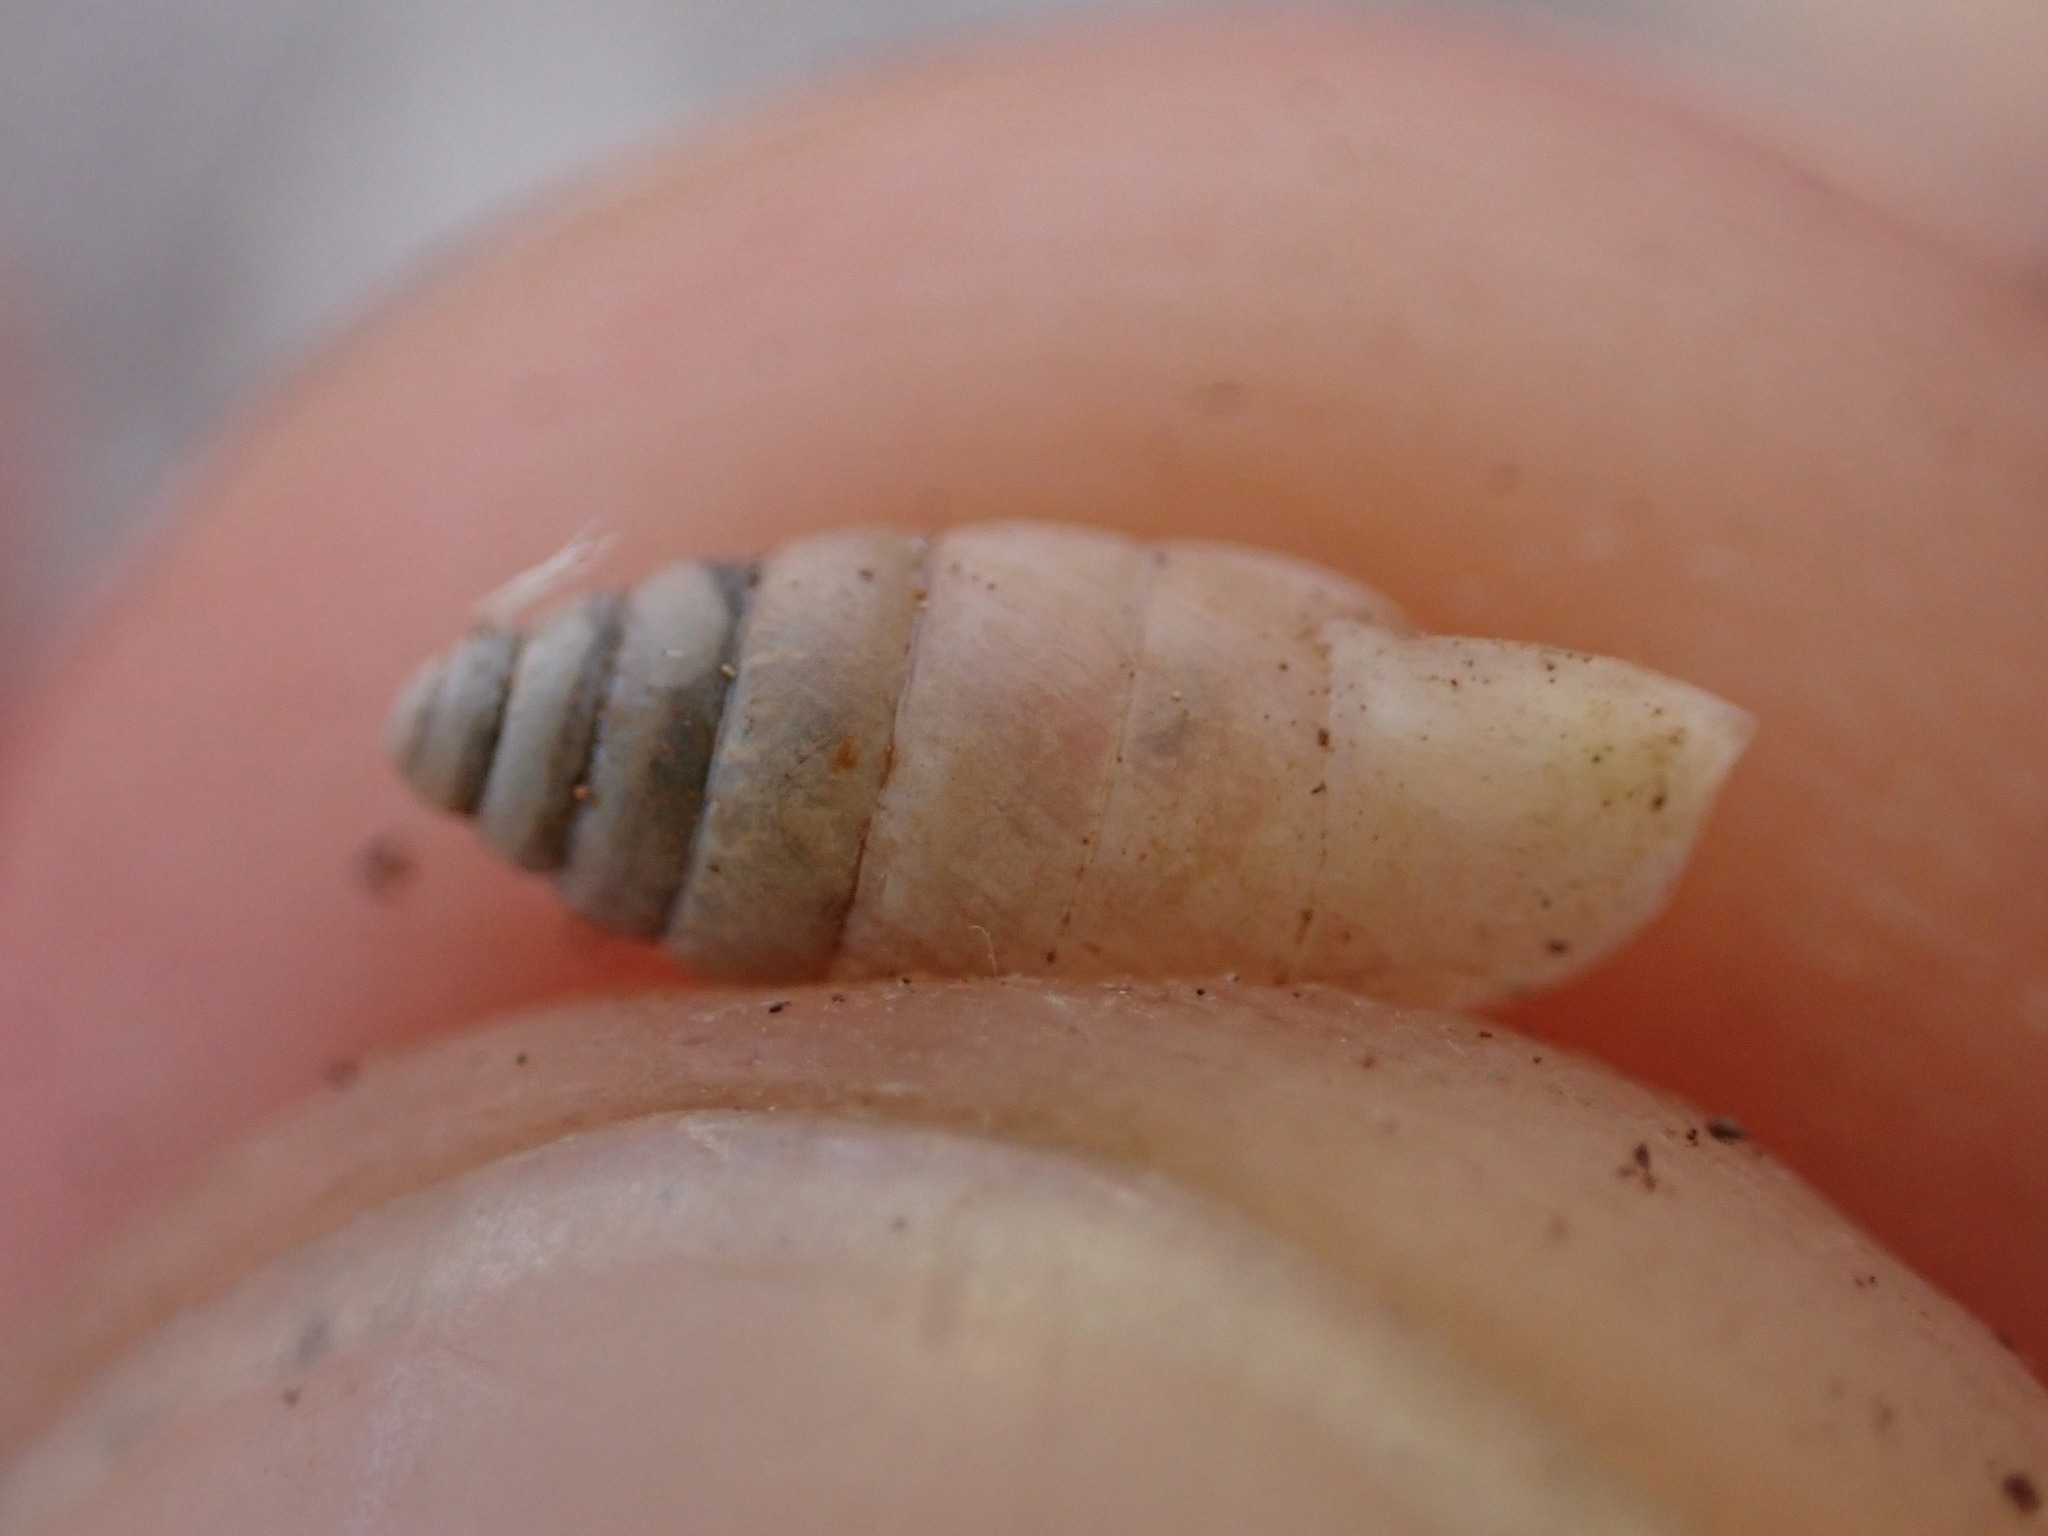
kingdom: Animalia
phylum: Mollusca
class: Gastropoda
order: Stylommatophora
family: Enidae
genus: Jaminia
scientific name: Jaminia quadridens
